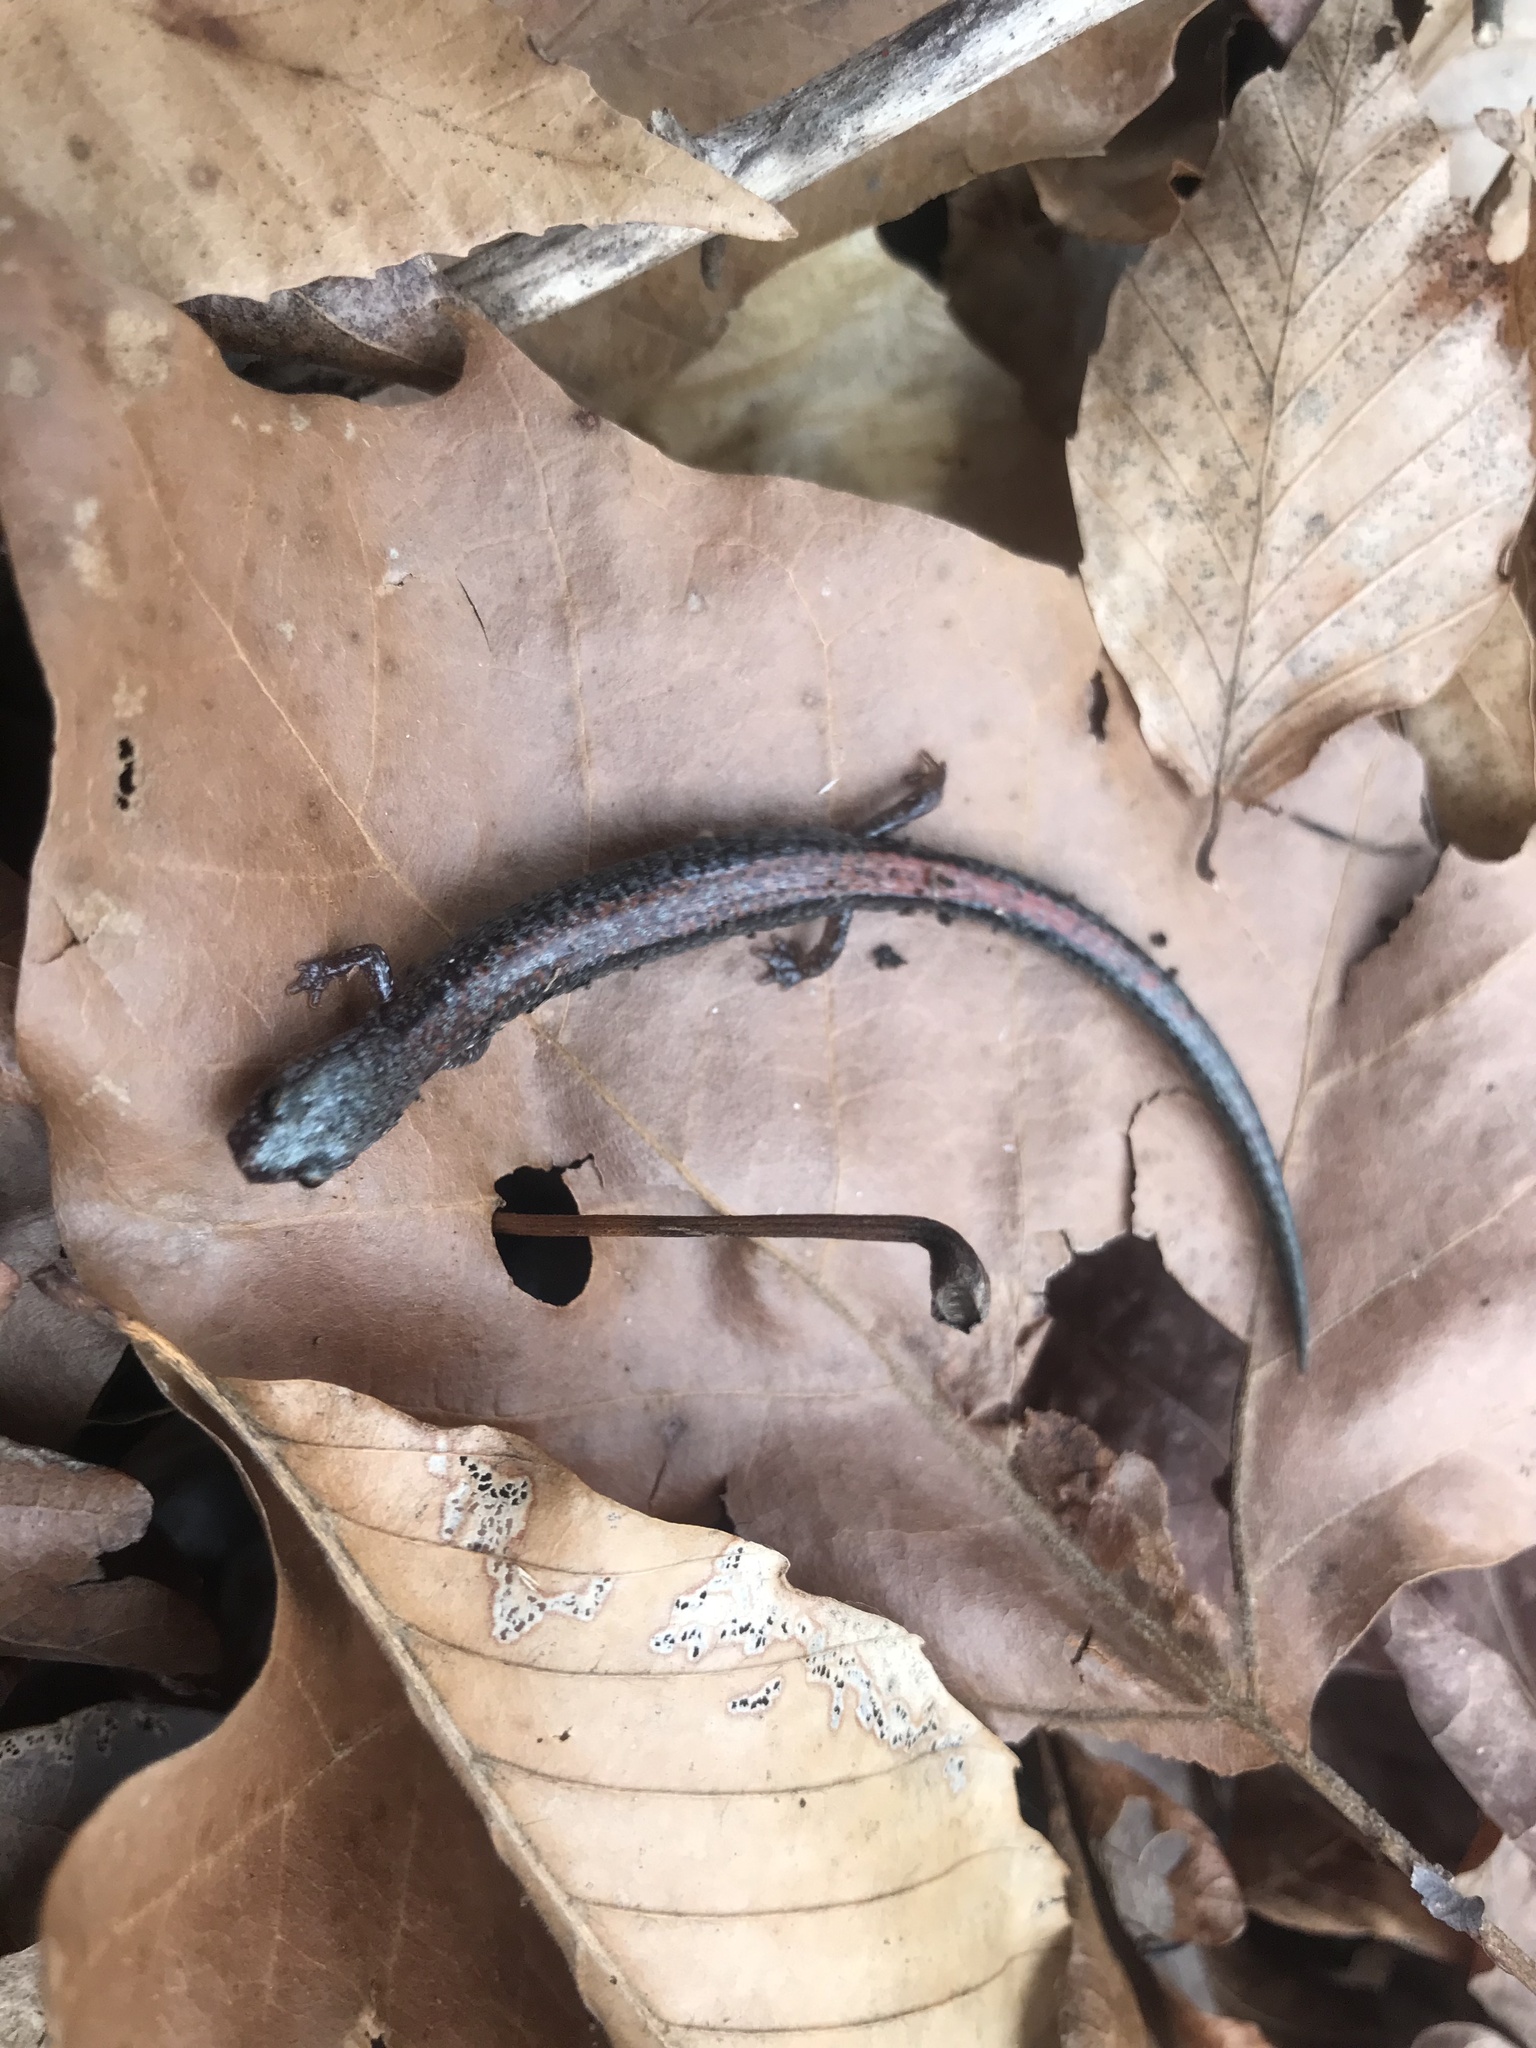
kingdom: Animalia
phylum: Chordata
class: Amphibia
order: Caudata
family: Plethodontidae
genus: Plethodon
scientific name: Plethodon cinereus
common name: Redback salamander
